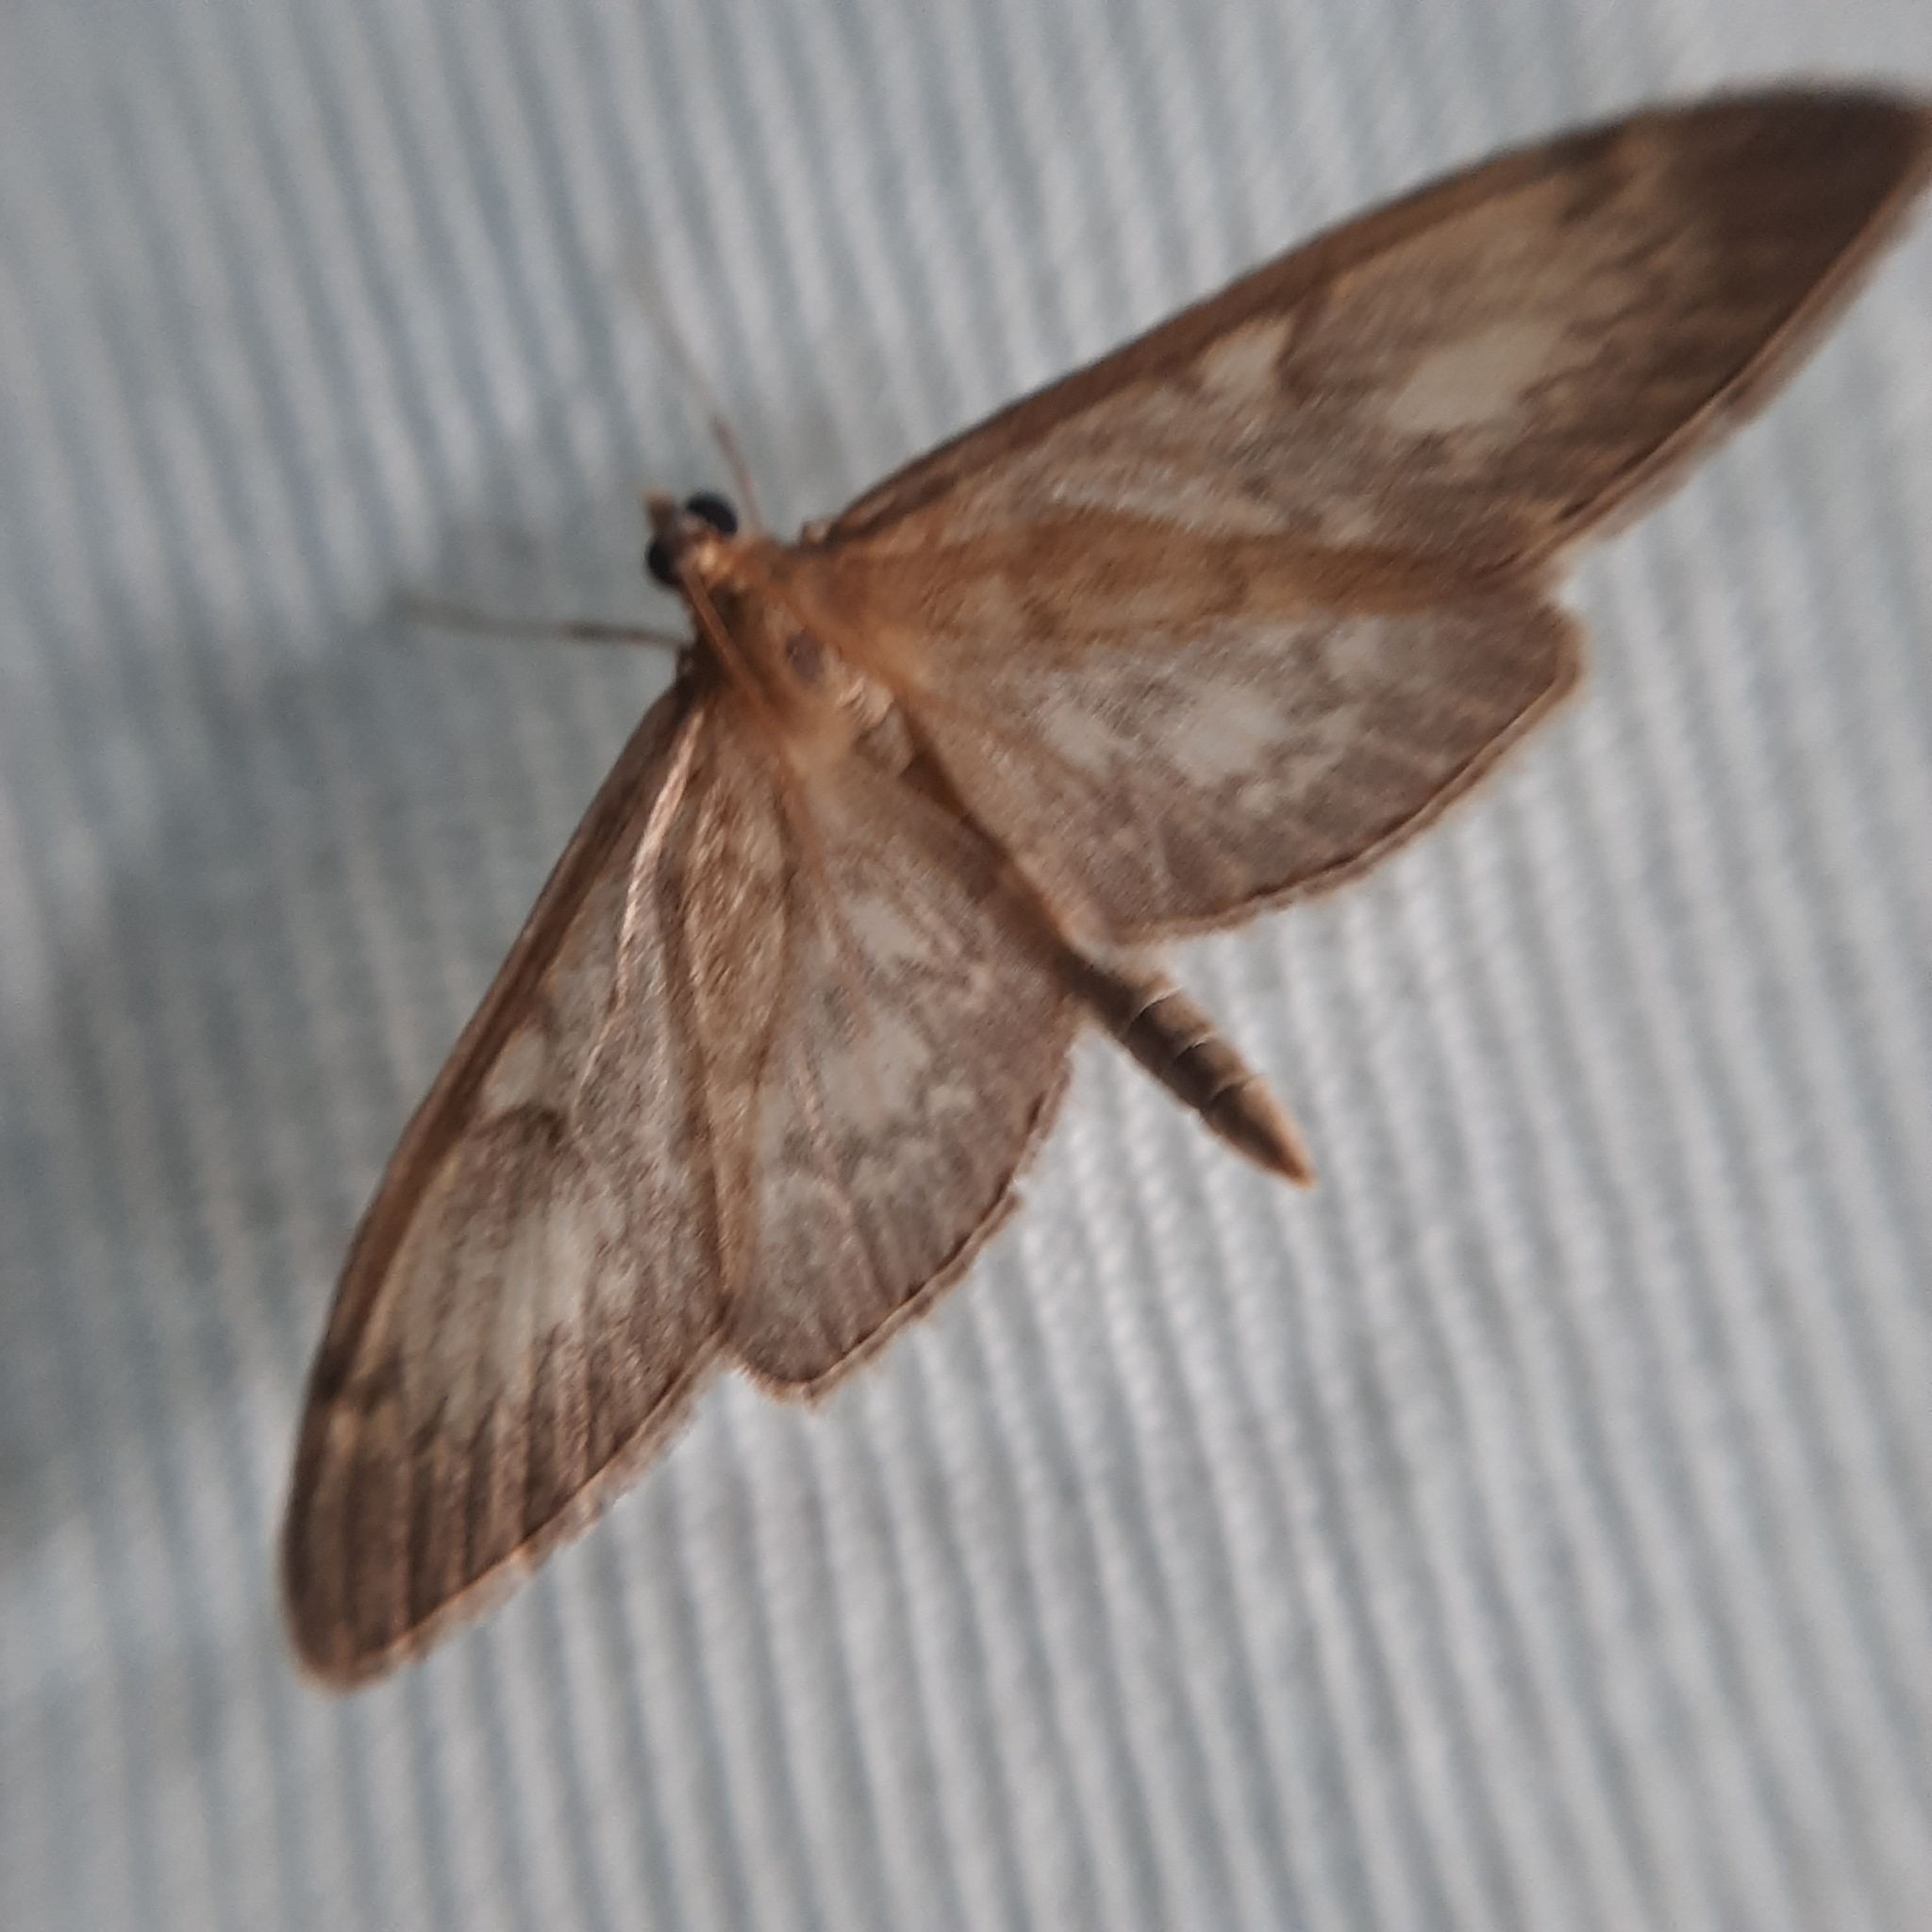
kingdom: Animalia
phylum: Arthropoda
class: Insecta
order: Lepidoptera
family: Crambidae
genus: Anania
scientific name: Anania lancealis
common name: Long-winged pearl
